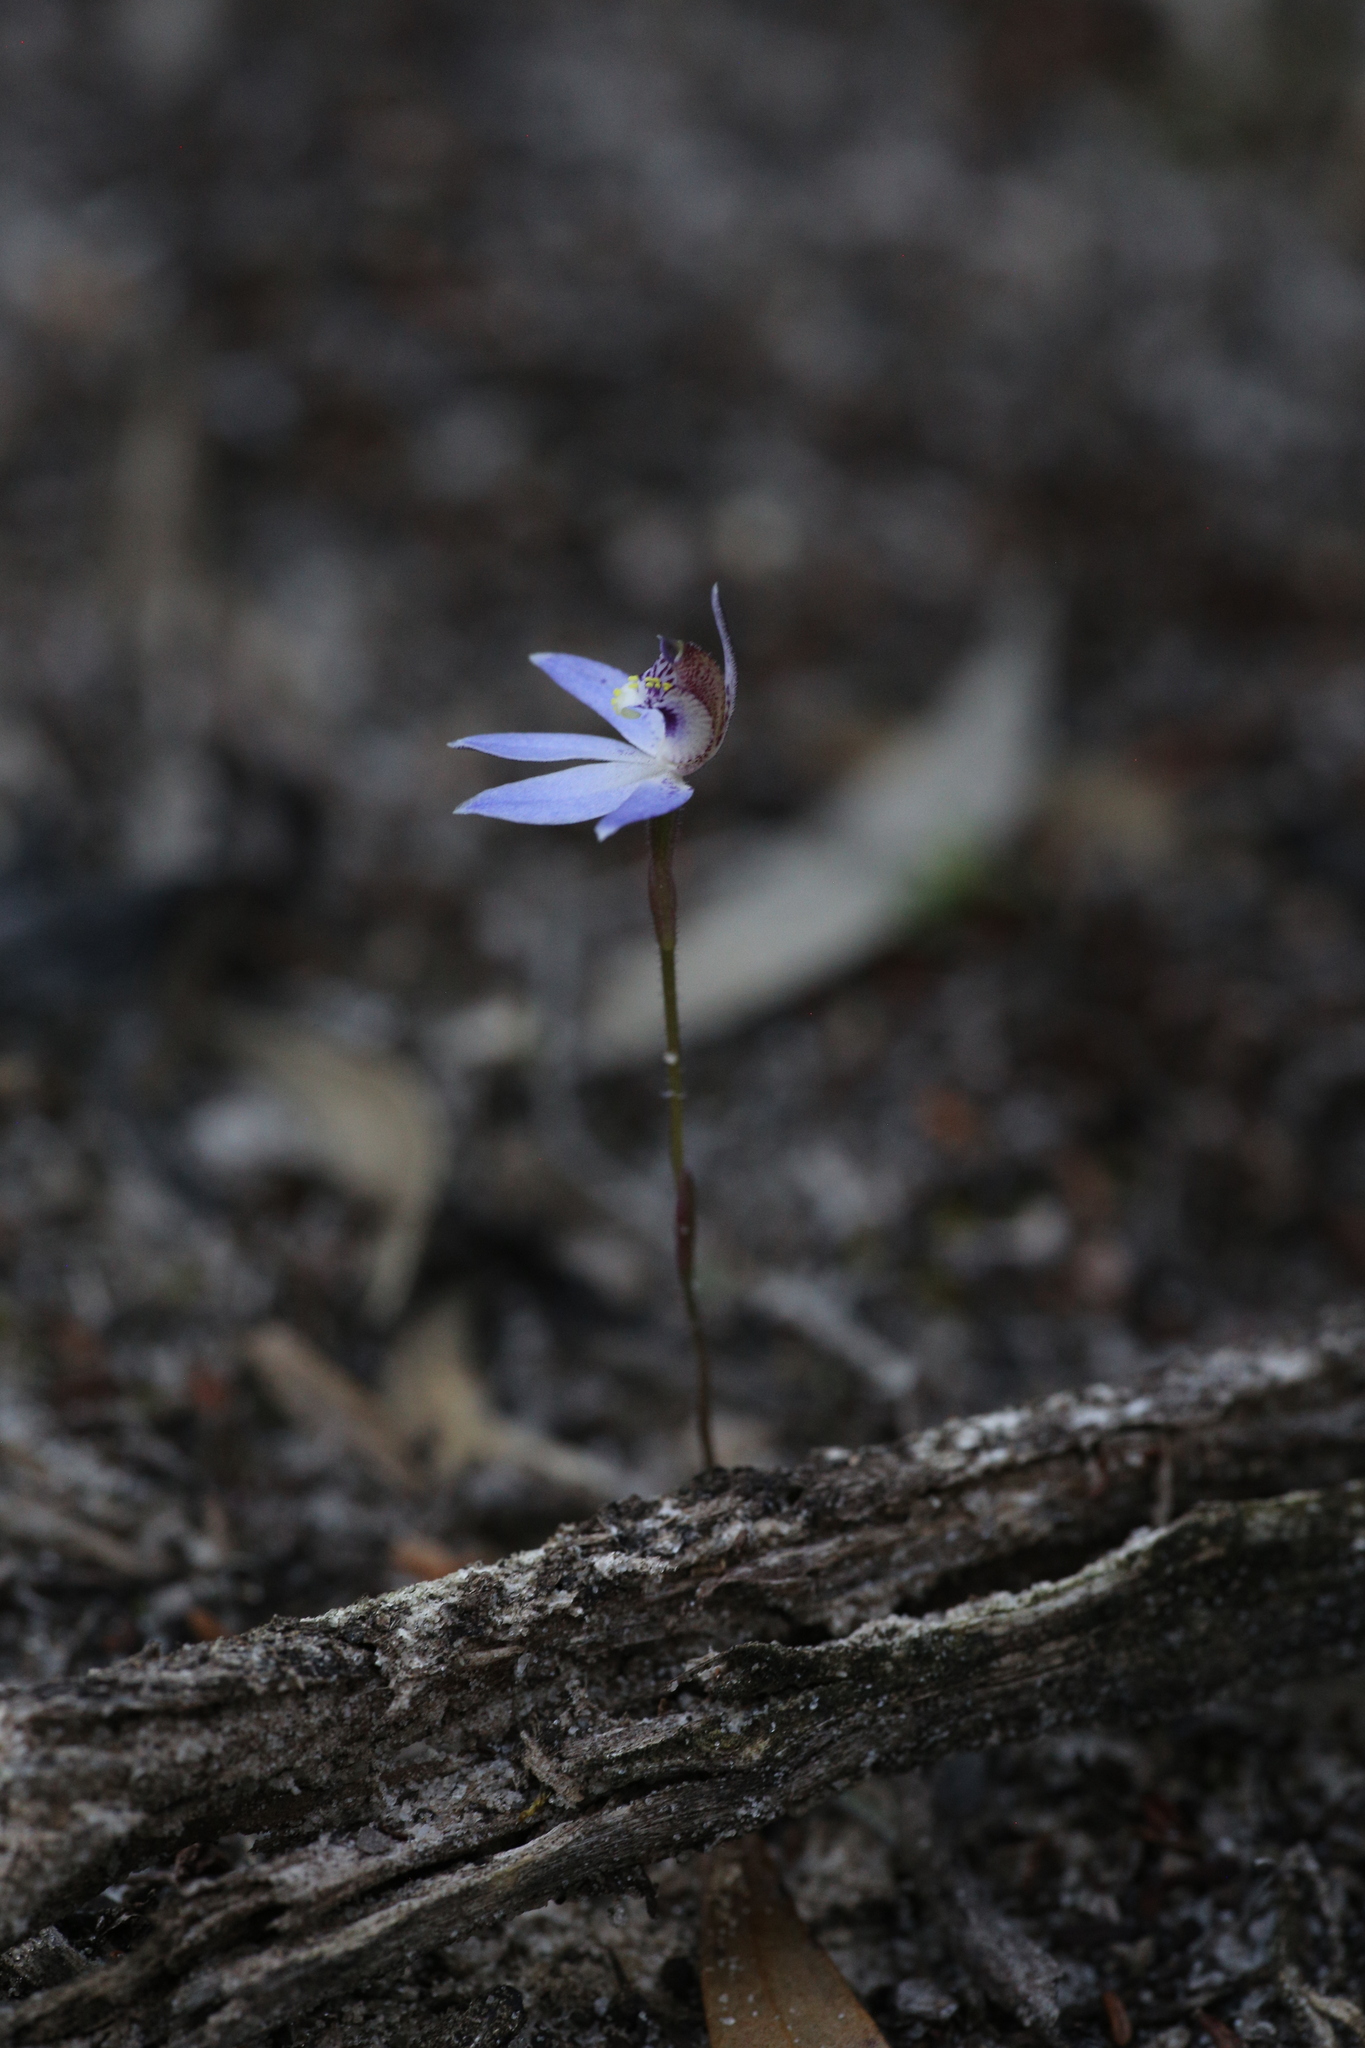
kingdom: Plantae
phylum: Tracheophyta
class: Liliopsida
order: Asparagales
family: Orchidaceae
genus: Caladenia
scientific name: Caladenia aperta
